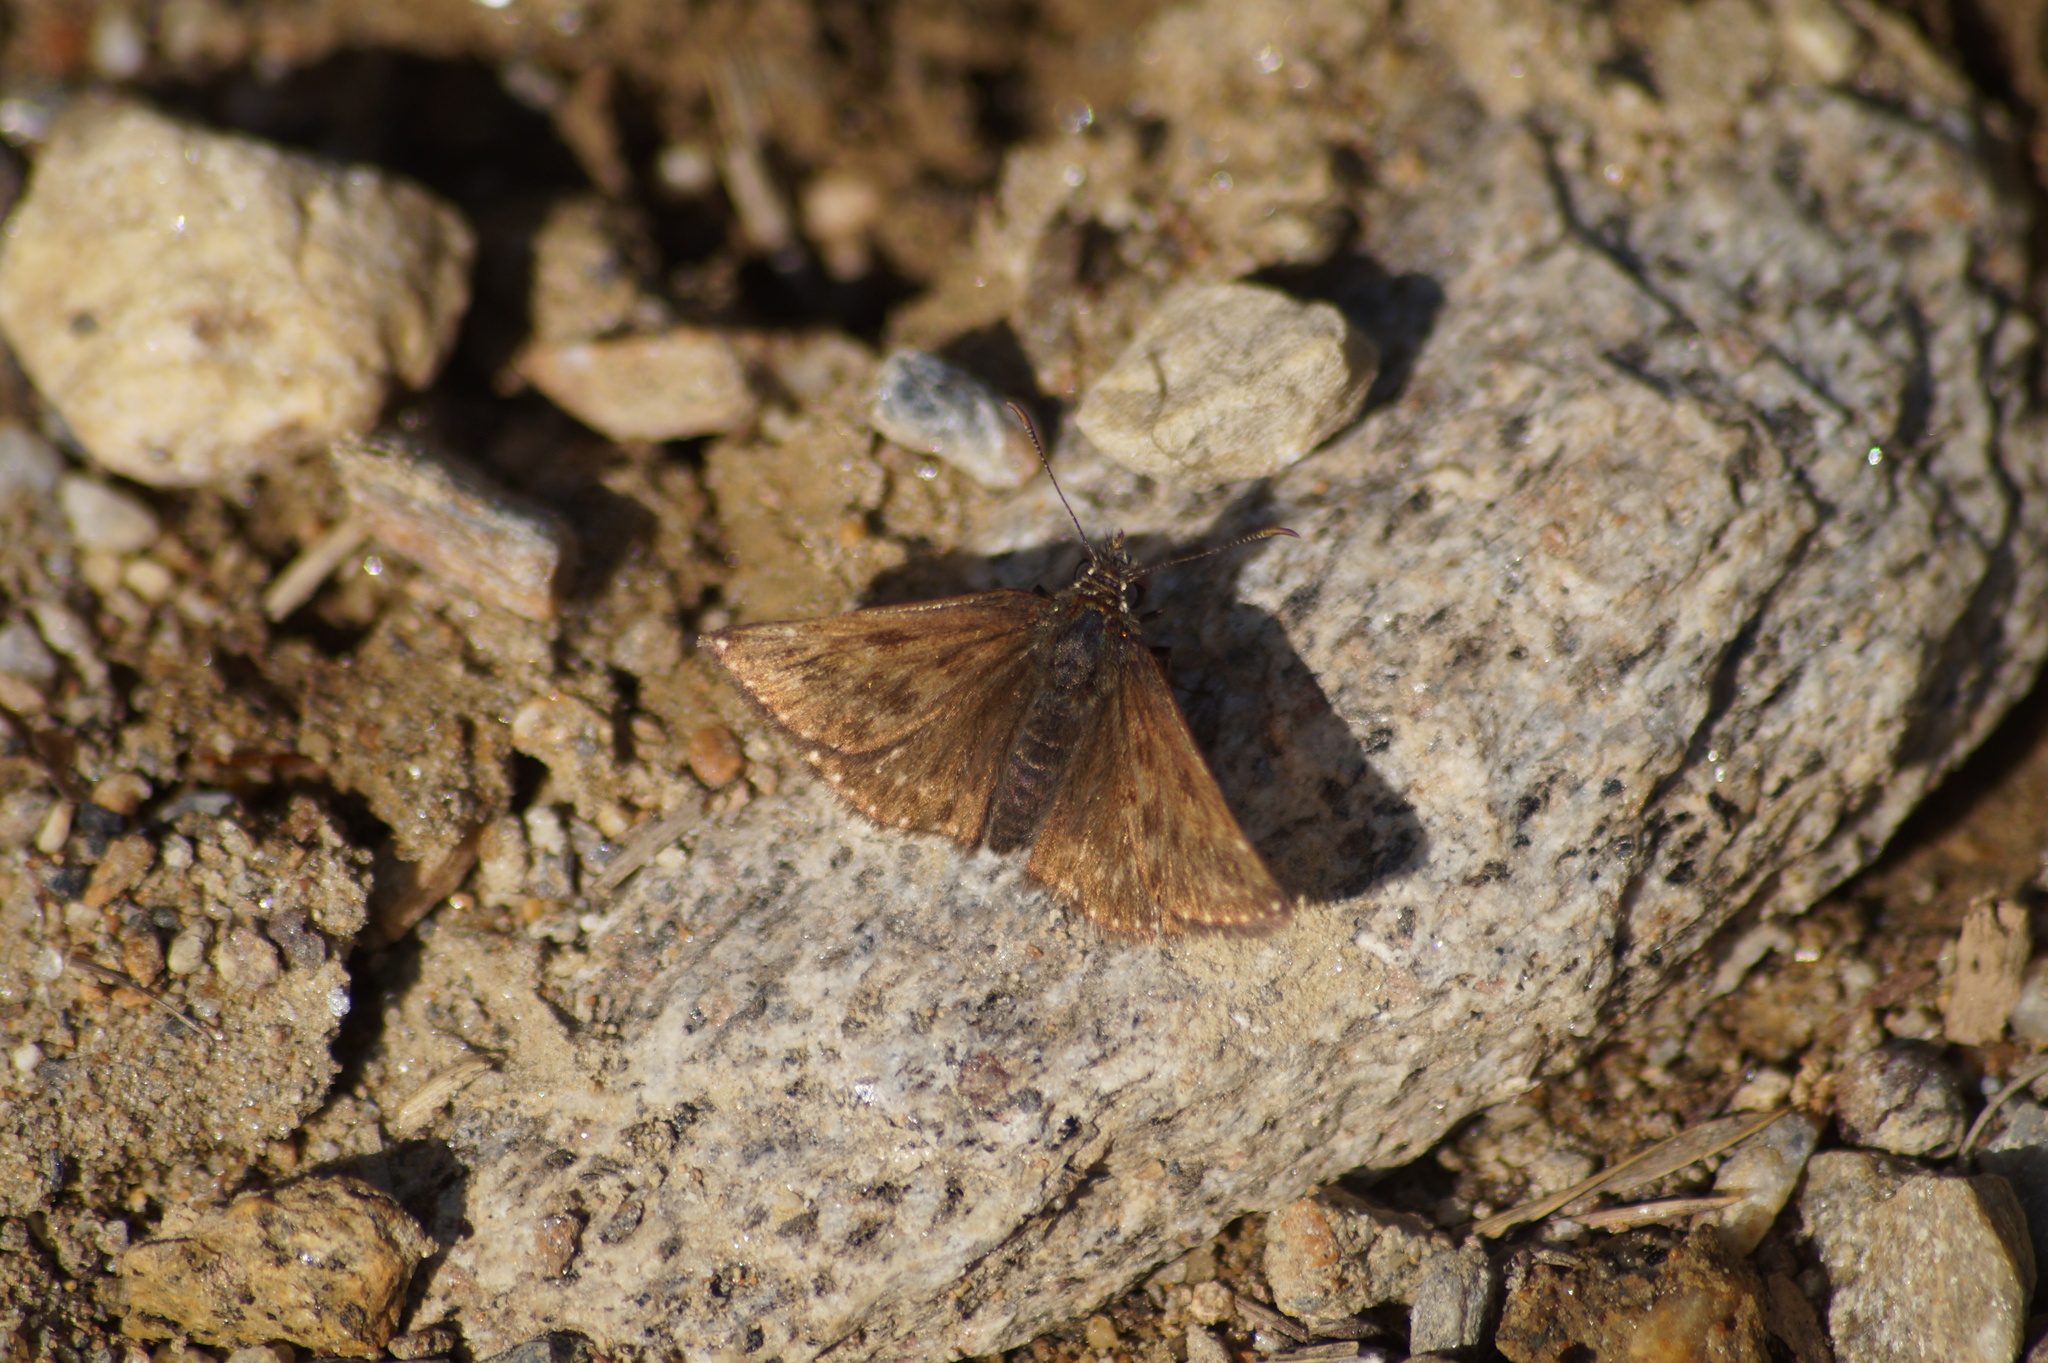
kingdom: Animalia
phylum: Arthropoda
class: Insecta
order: Lepidoptera
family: Hesperiidae
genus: Erynnis
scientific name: Erynnis tages
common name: Dingy skipper
